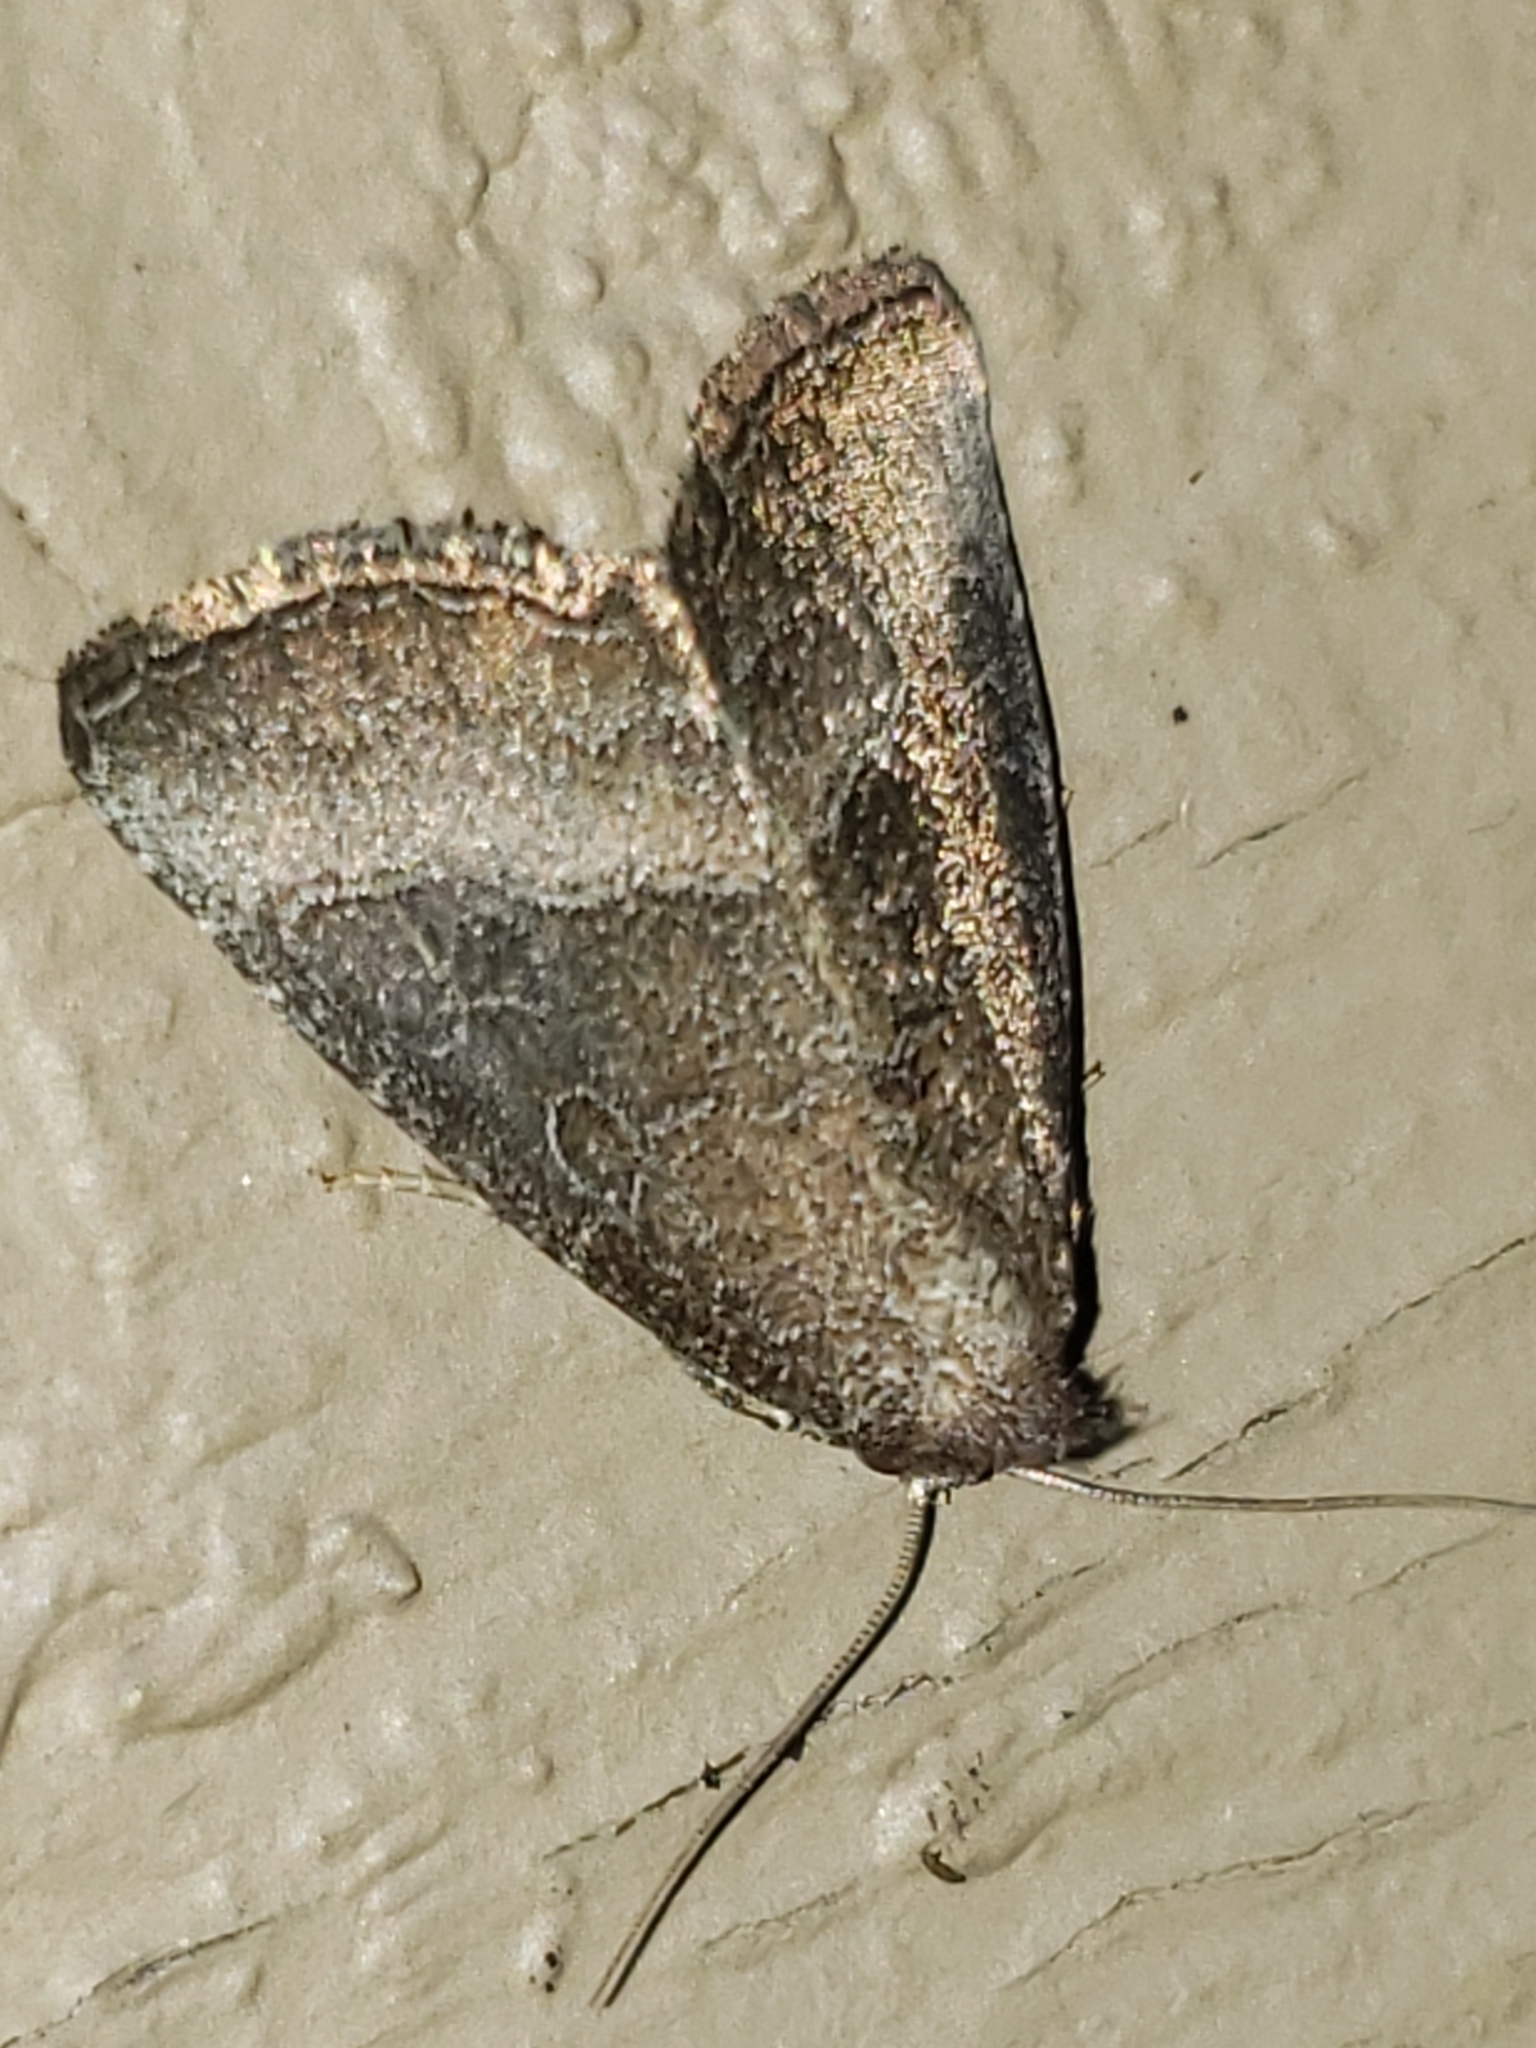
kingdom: Animalia
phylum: Arthropoda
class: Insecta
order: Lepidoptera
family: Noctuidae
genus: Ogdoconta
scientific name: Ogdoconta cinereola
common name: Common pinkband
